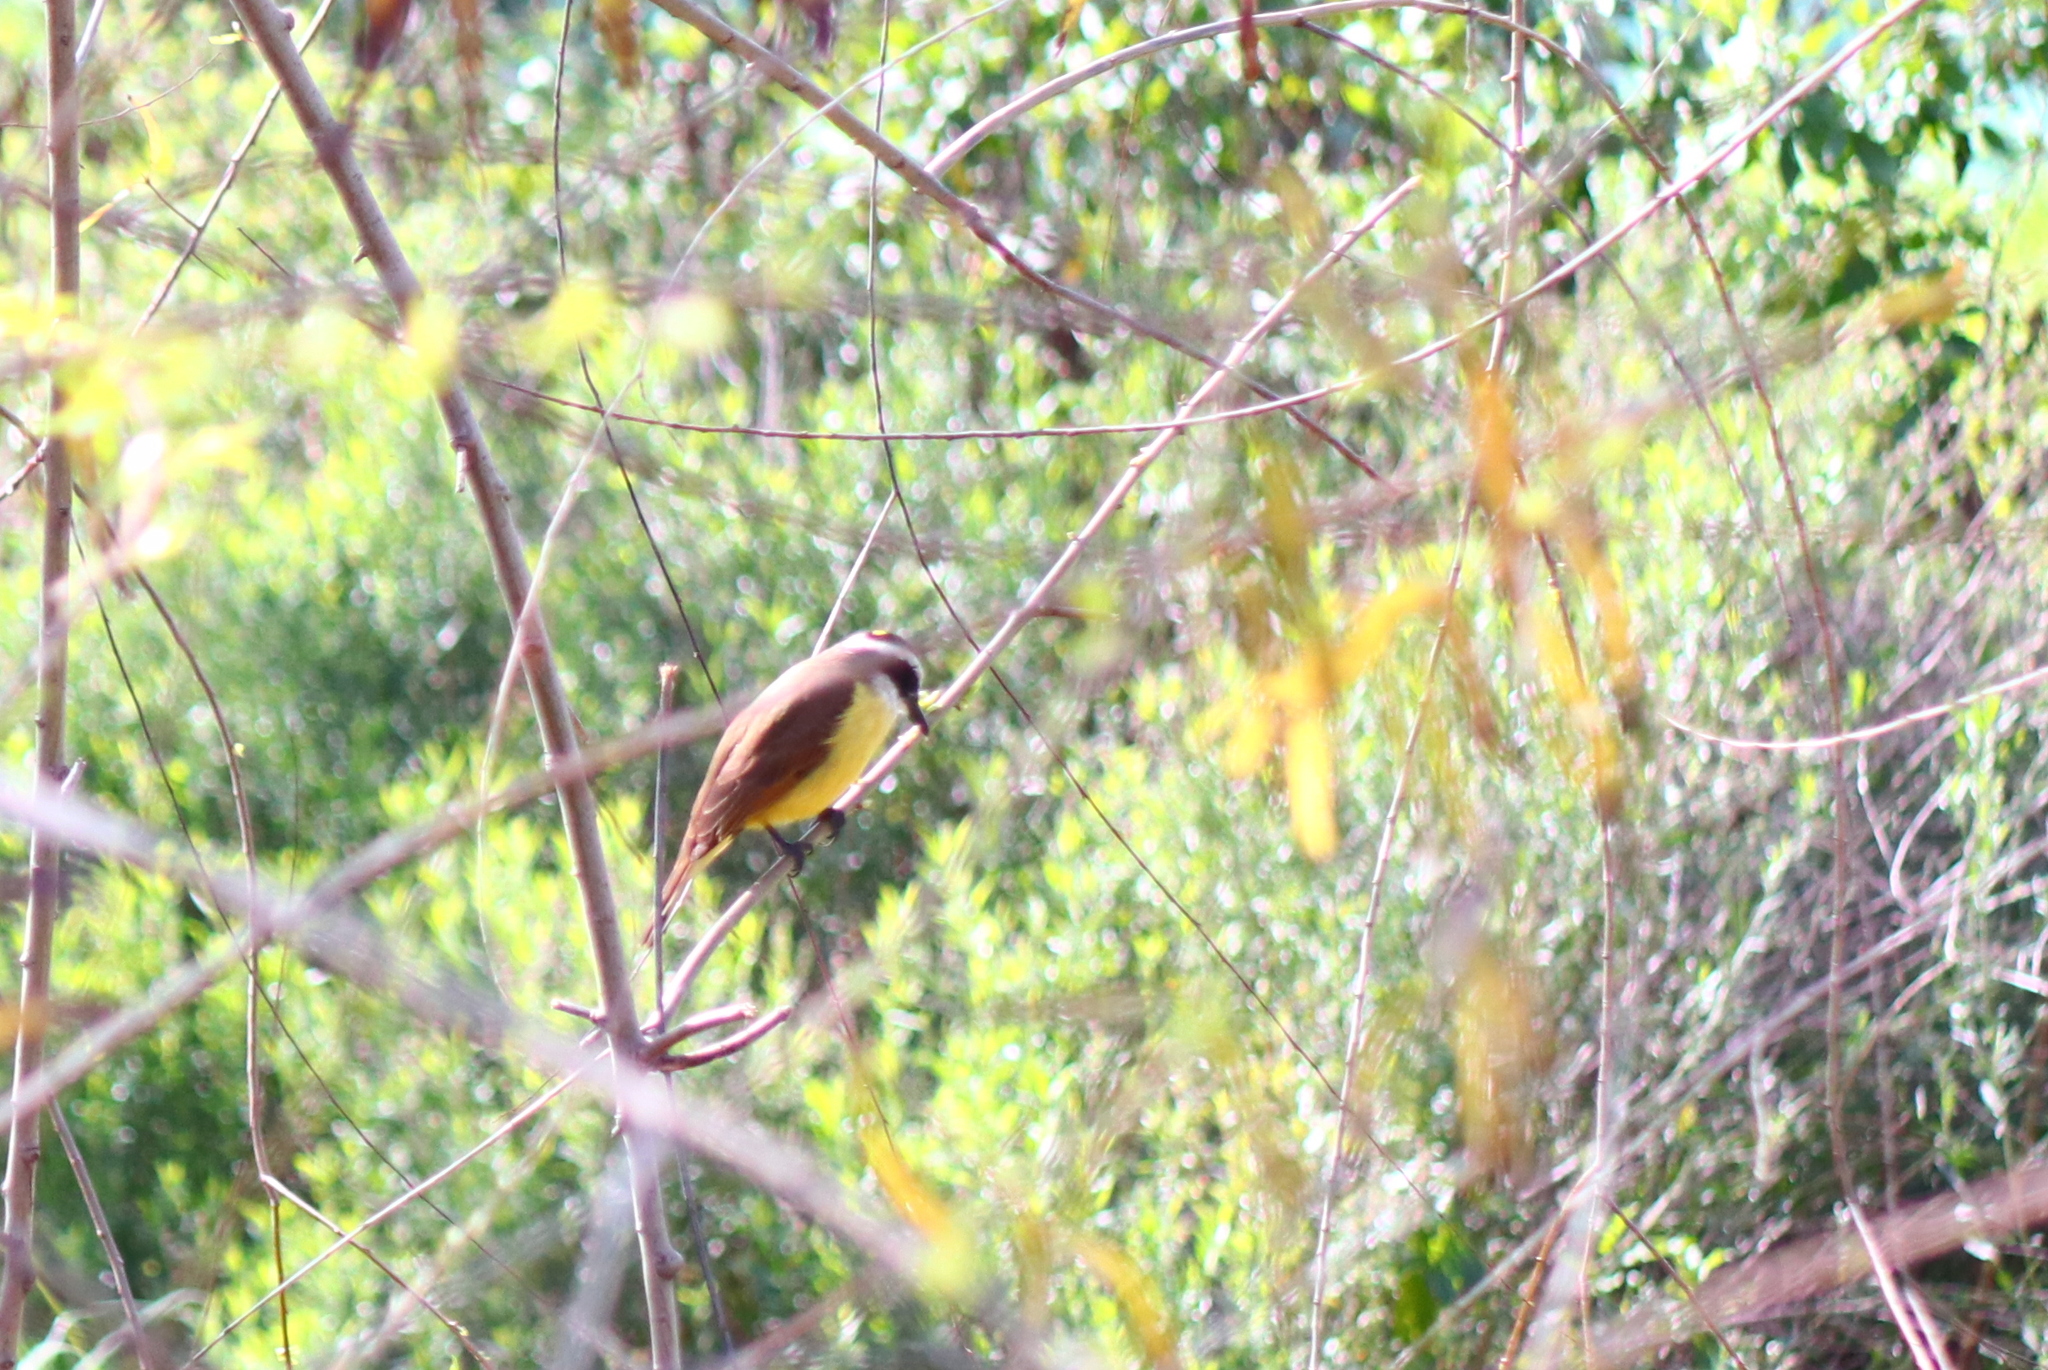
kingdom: Animalia
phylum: Chordata
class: Aves
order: Passeriformes
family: Tyrannidae
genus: Pitangus
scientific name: Pitangus sulphuratus
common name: Great kiskadee
